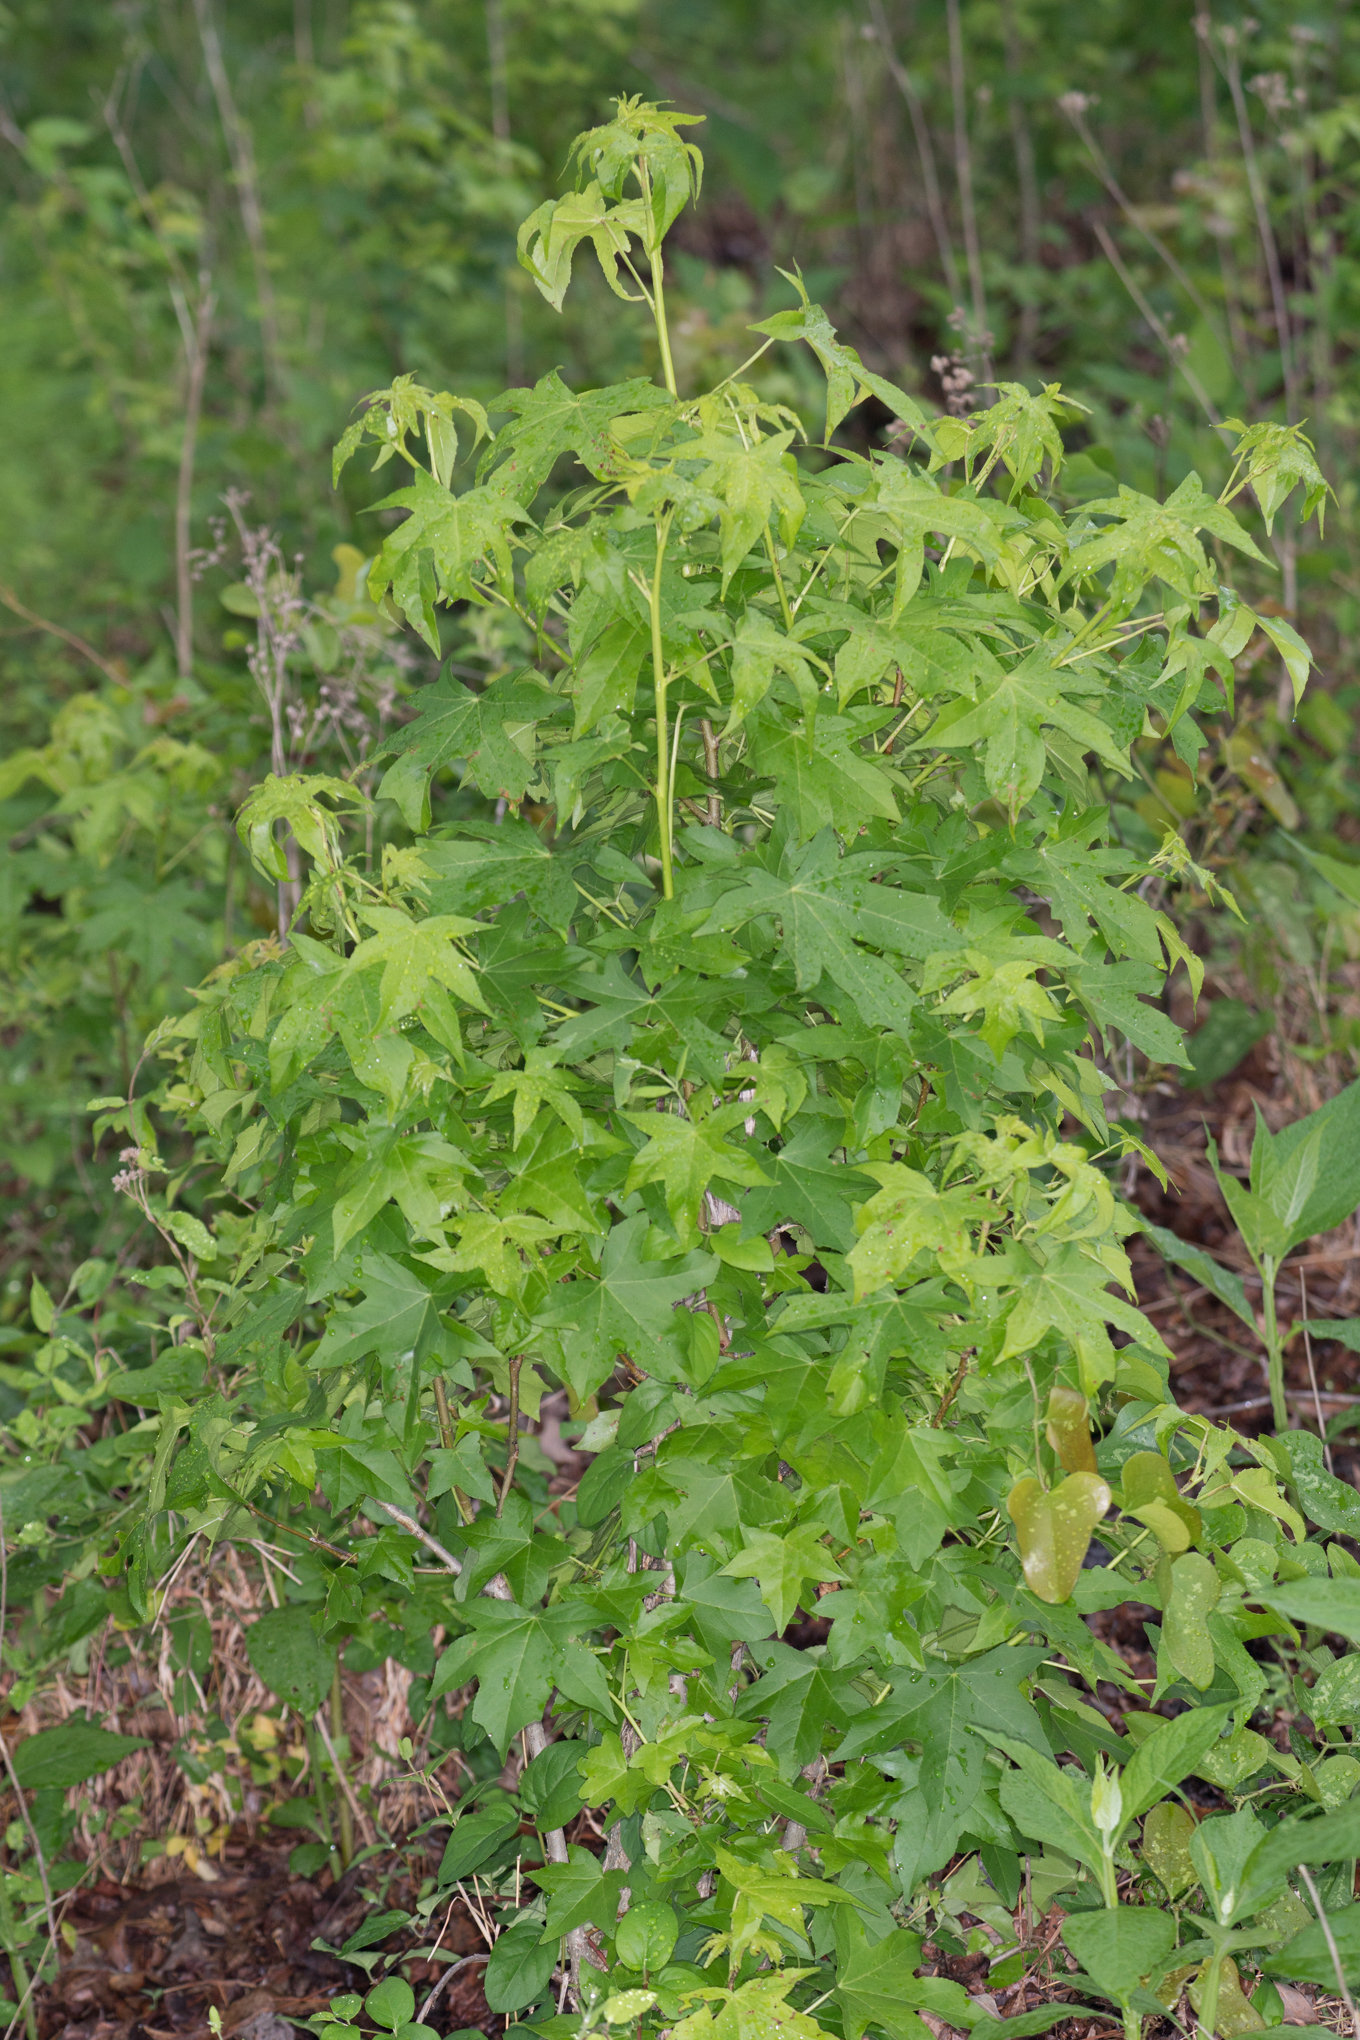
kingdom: Plantae
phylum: Tracheophyta
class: Magnoliopsida
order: Saxifragales
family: Altingiaceae
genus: Liquidambar
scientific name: Liquidambar styraciflua
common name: Sweet gum
